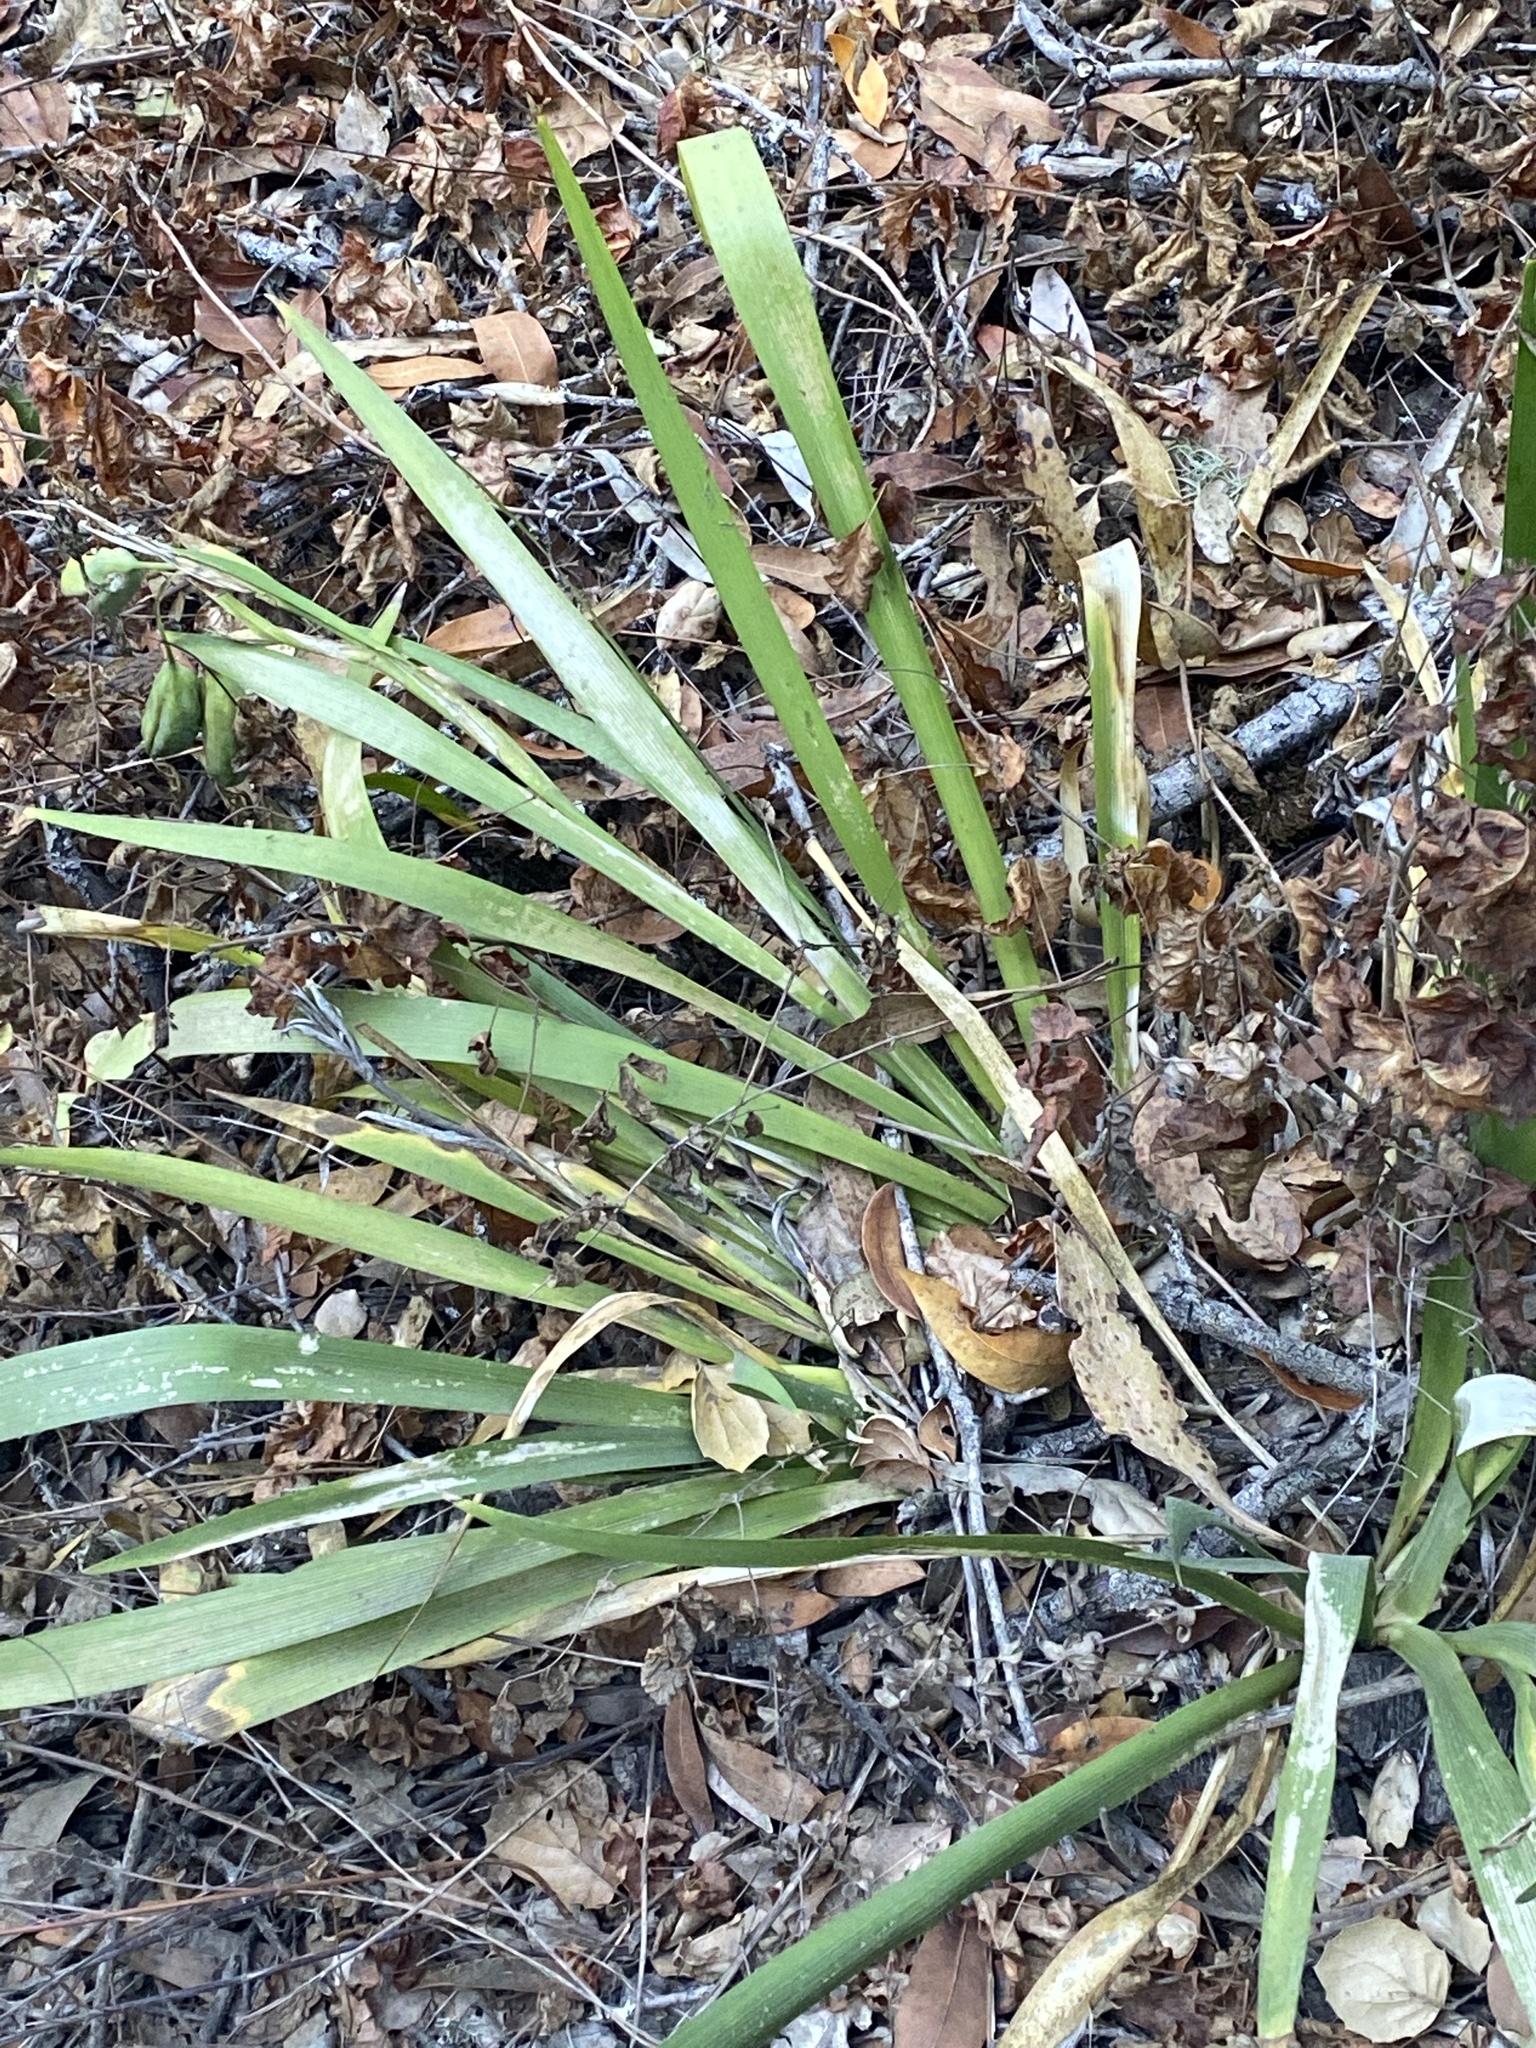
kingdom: Plantae
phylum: Tracheophyta
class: Liliopsida
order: Asparagales
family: Iridaceae
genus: Iris
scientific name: Iris foetidissima
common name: Stinking iris
